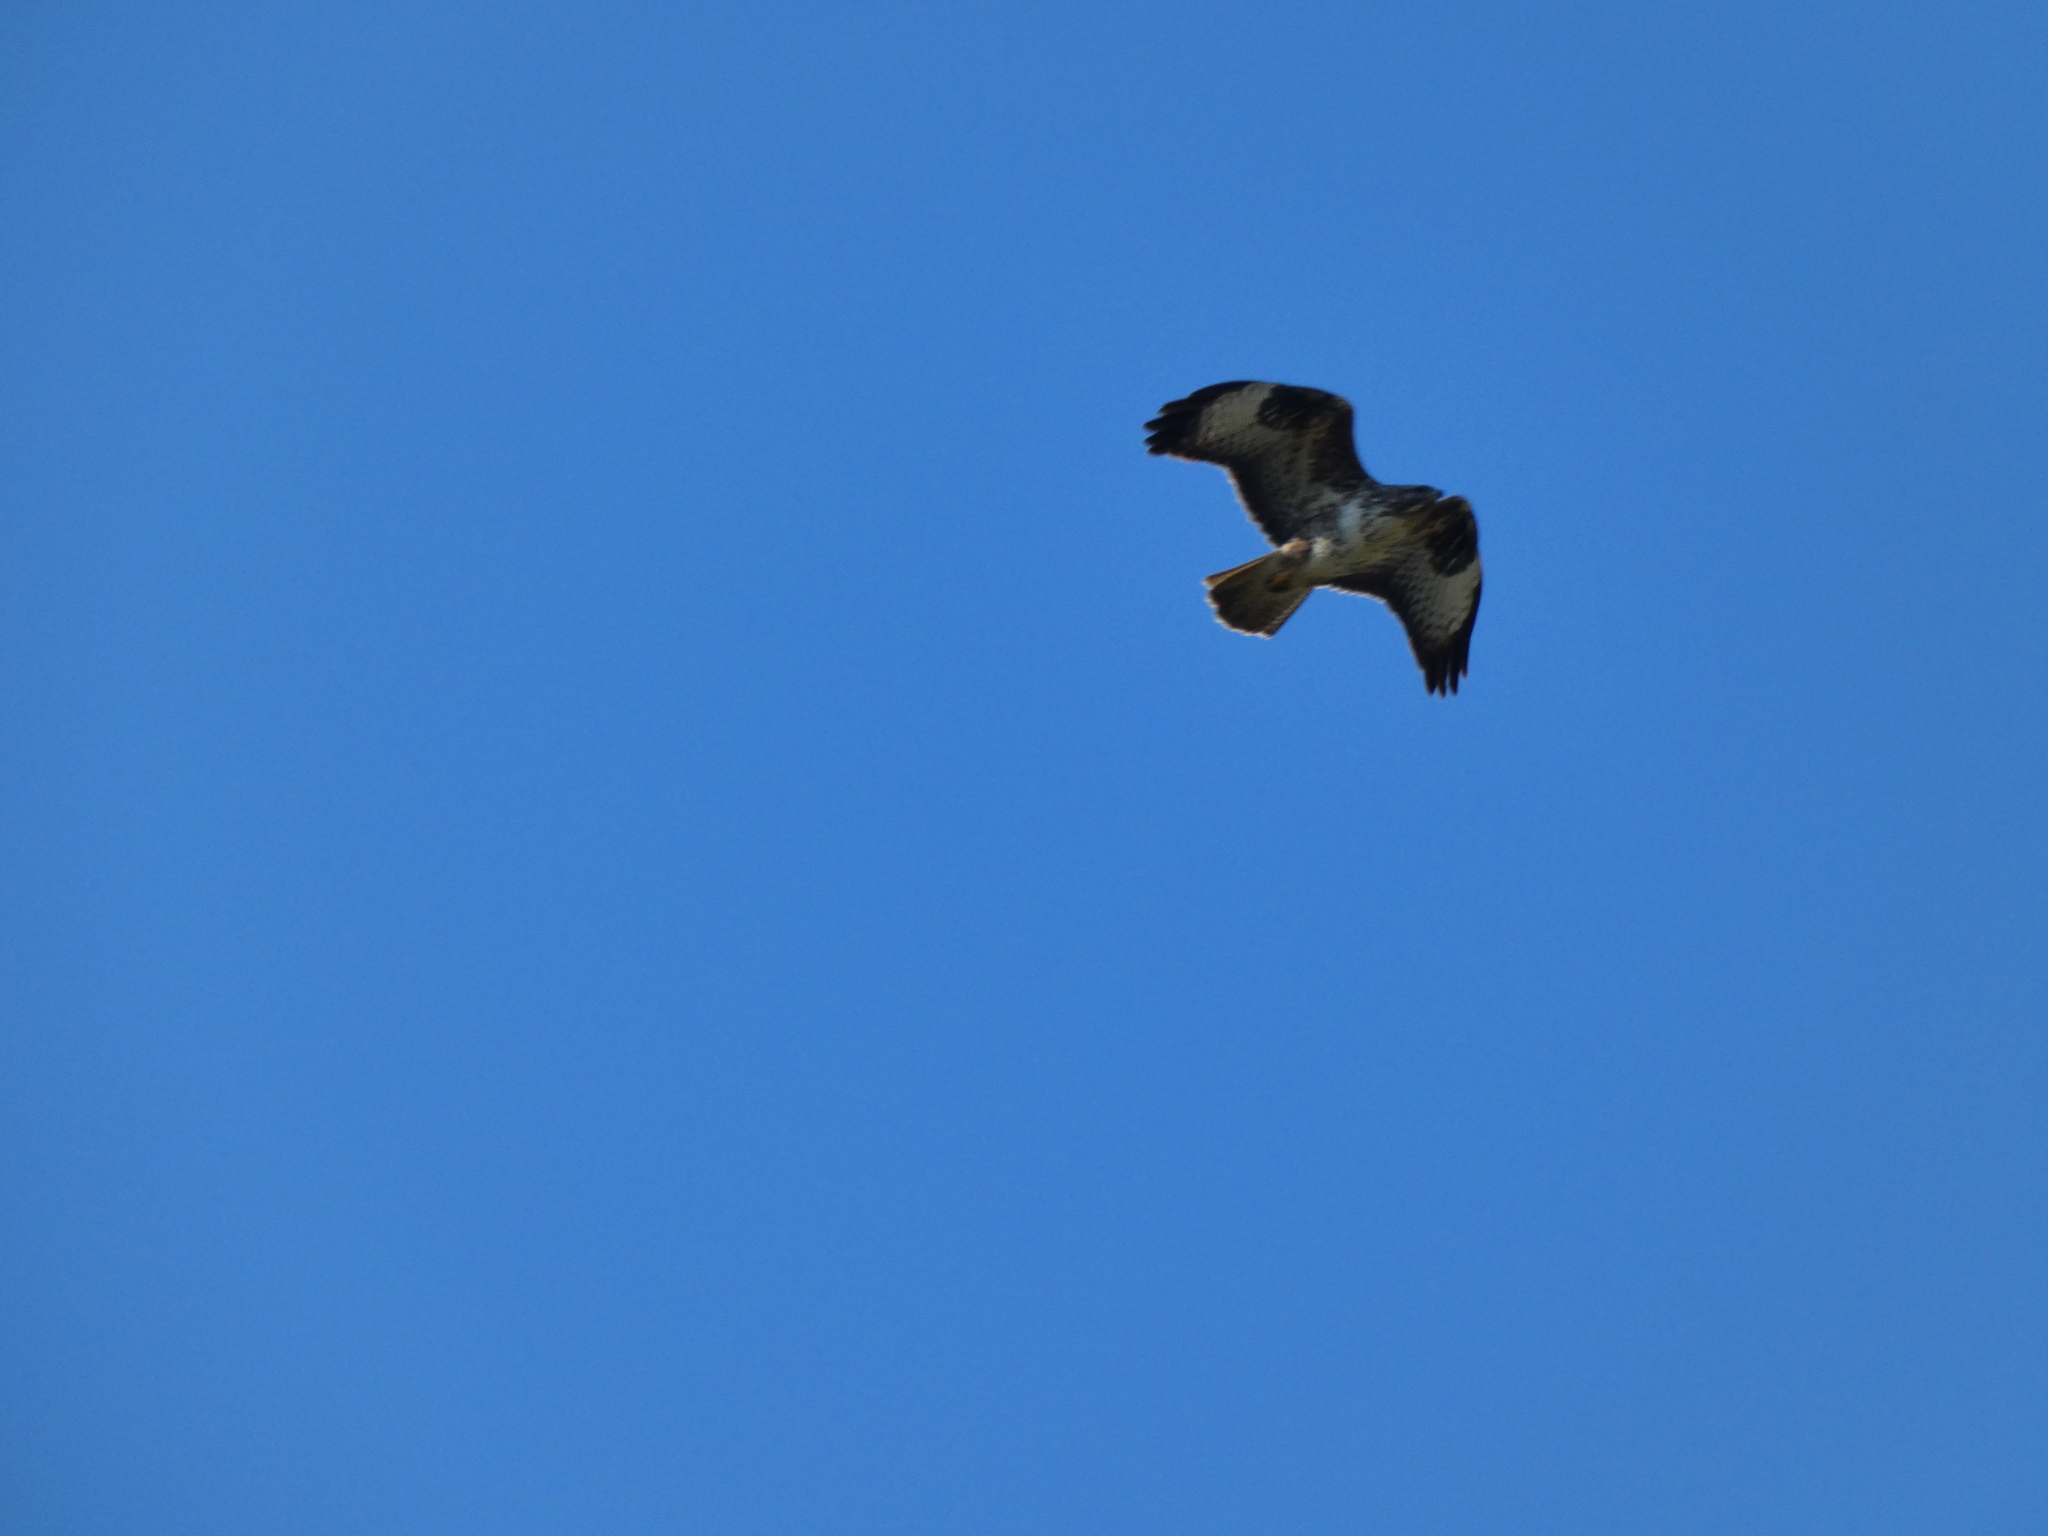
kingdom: Animalia
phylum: Chordata
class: Aves
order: Accipitriformes
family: Accipitridae
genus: Buteo
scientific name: Buteo buteo
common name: Common buzzard
